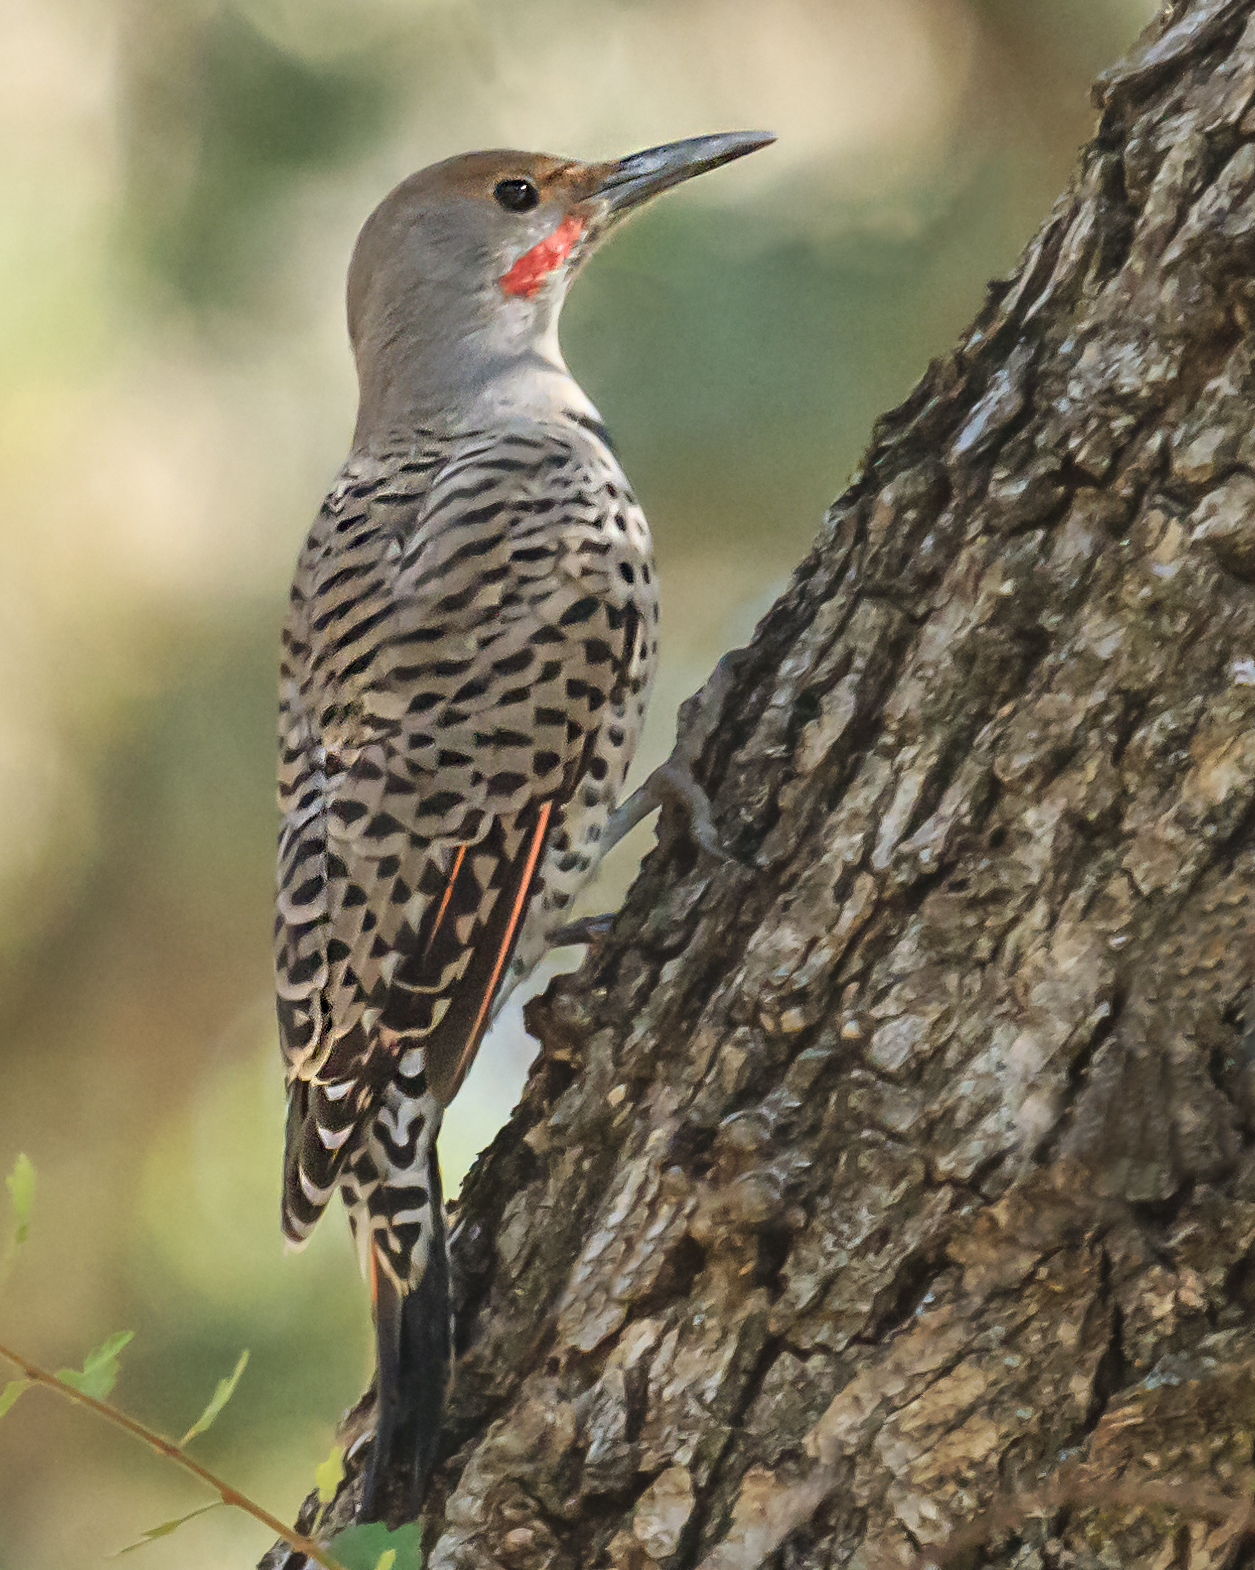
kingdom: Animalia
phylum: Chordata
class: Aves
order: Piciformes
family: Picidae
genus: Colaptes
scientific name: Colaptes auratus
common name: Northern flicker
